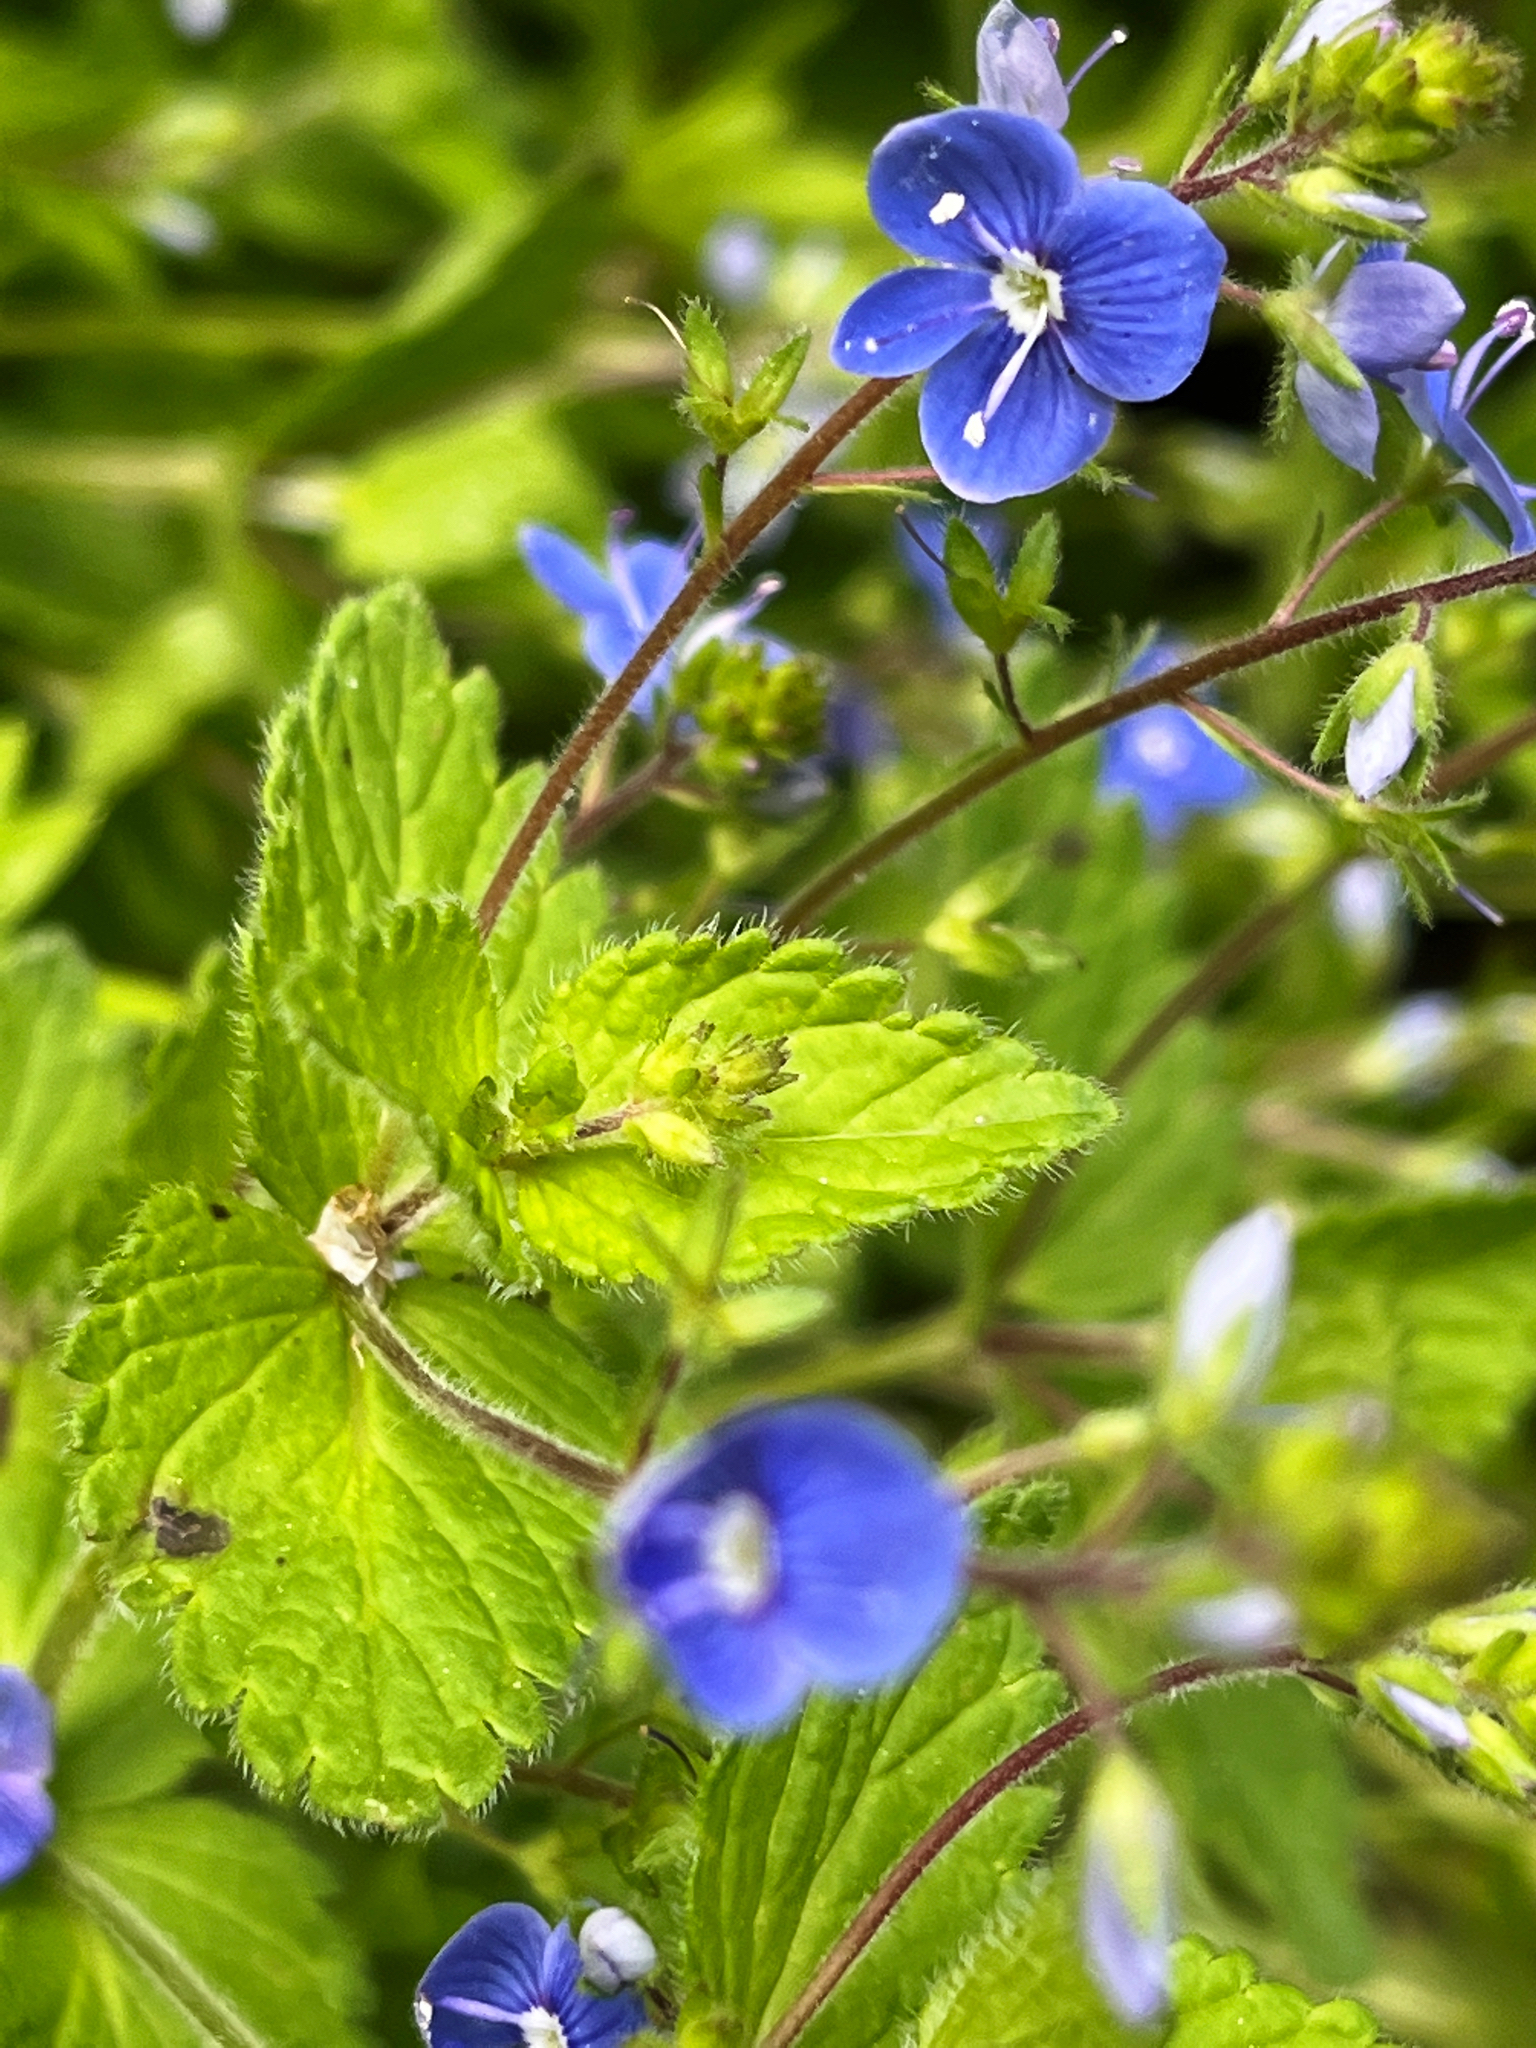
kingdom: Plantae
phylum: Tracheophyta
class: Magnoliopsida
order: Lamiales
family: Plantaginaceae
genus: Veronica
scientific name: Veronica chamaedrys
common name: Germander speedwell
